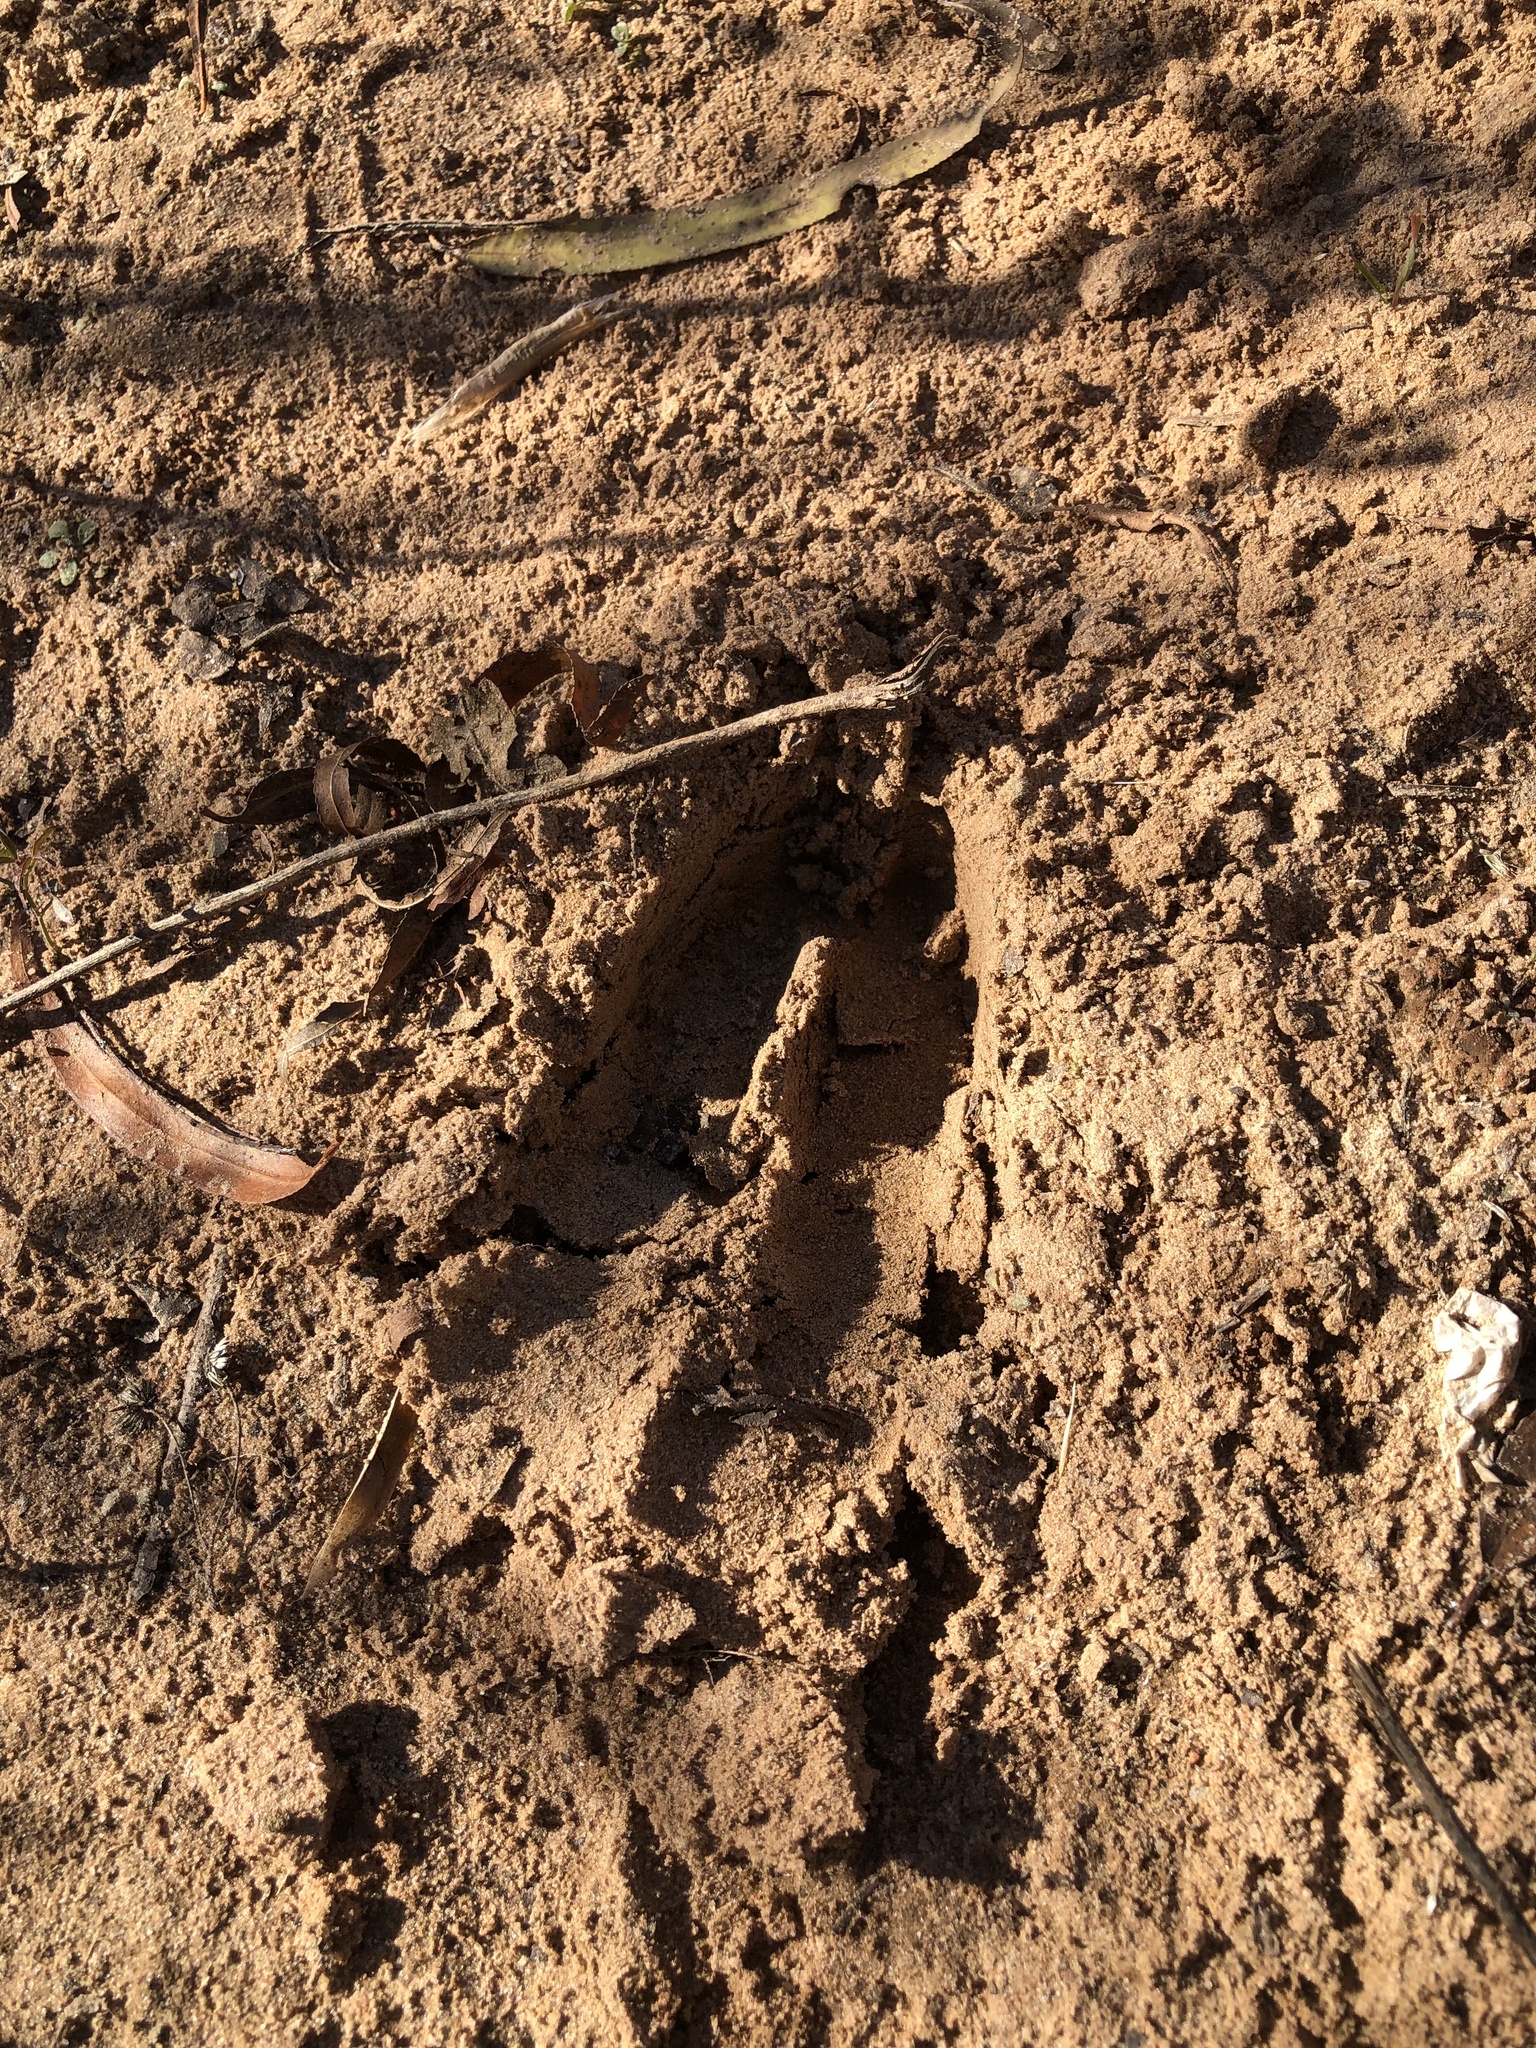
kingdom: Animalia
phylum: Chordata
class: Mammalia
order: Artiodactyla
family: Cervidae
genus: Odocoileus
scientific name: Odocoileus virginianus
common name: White-tailed deer
